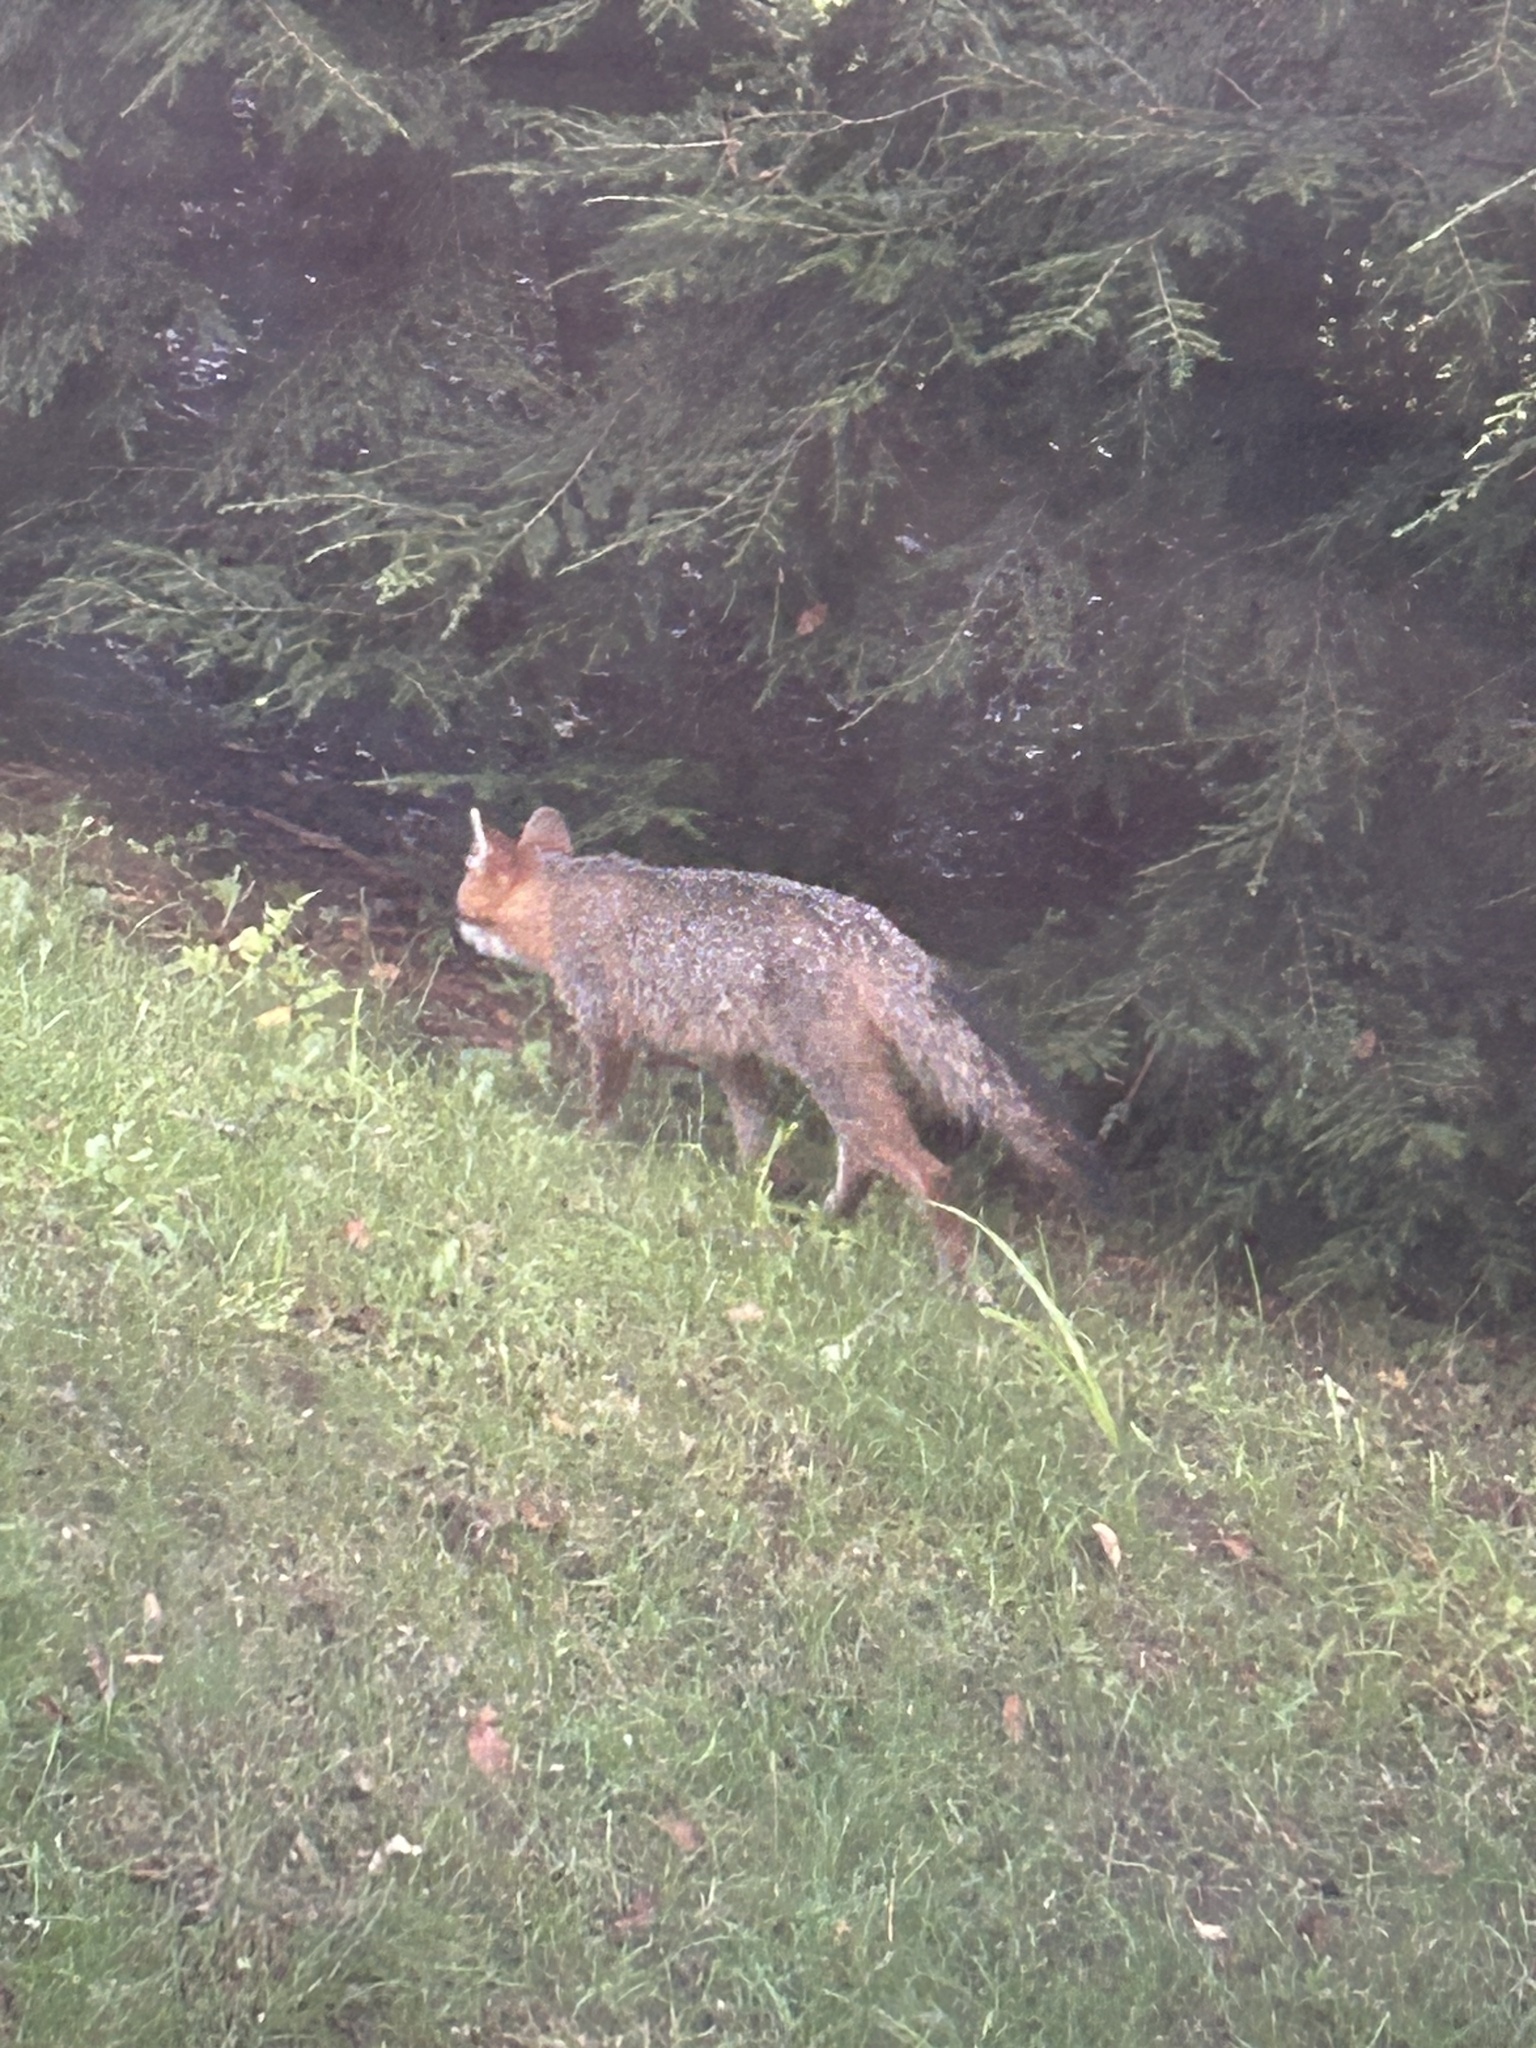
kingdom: Animalia
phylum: Chordata
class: Mammalia
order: Carnivora
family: Canidae
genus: Urocyon
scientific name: Urocyon cinereoargenteus
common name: Gray fox
